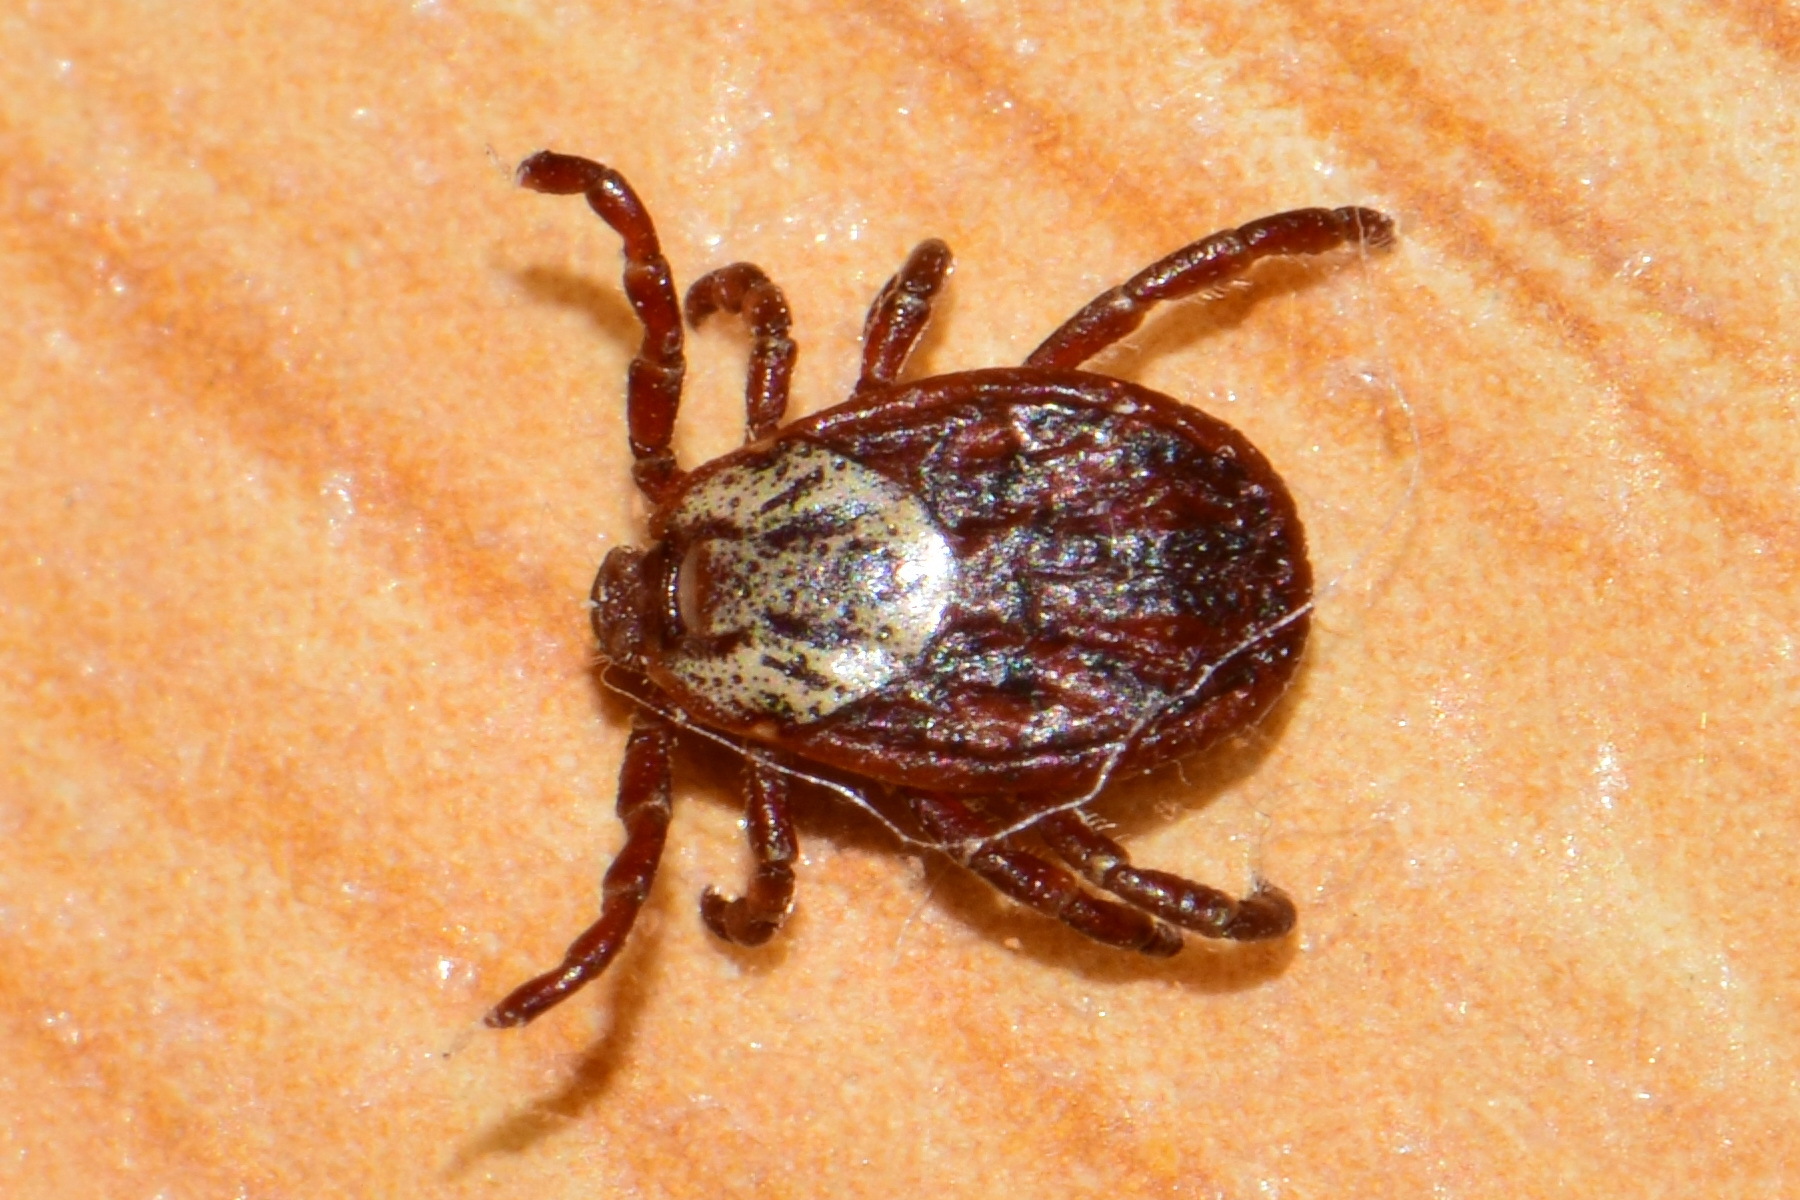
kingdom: Animalia
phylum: Arthropoda
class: Arachnida
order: Ixodida
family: Ixodidae
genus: Dermacentor
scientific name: Dermacentor reticulatus
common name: Ornate cow tick
